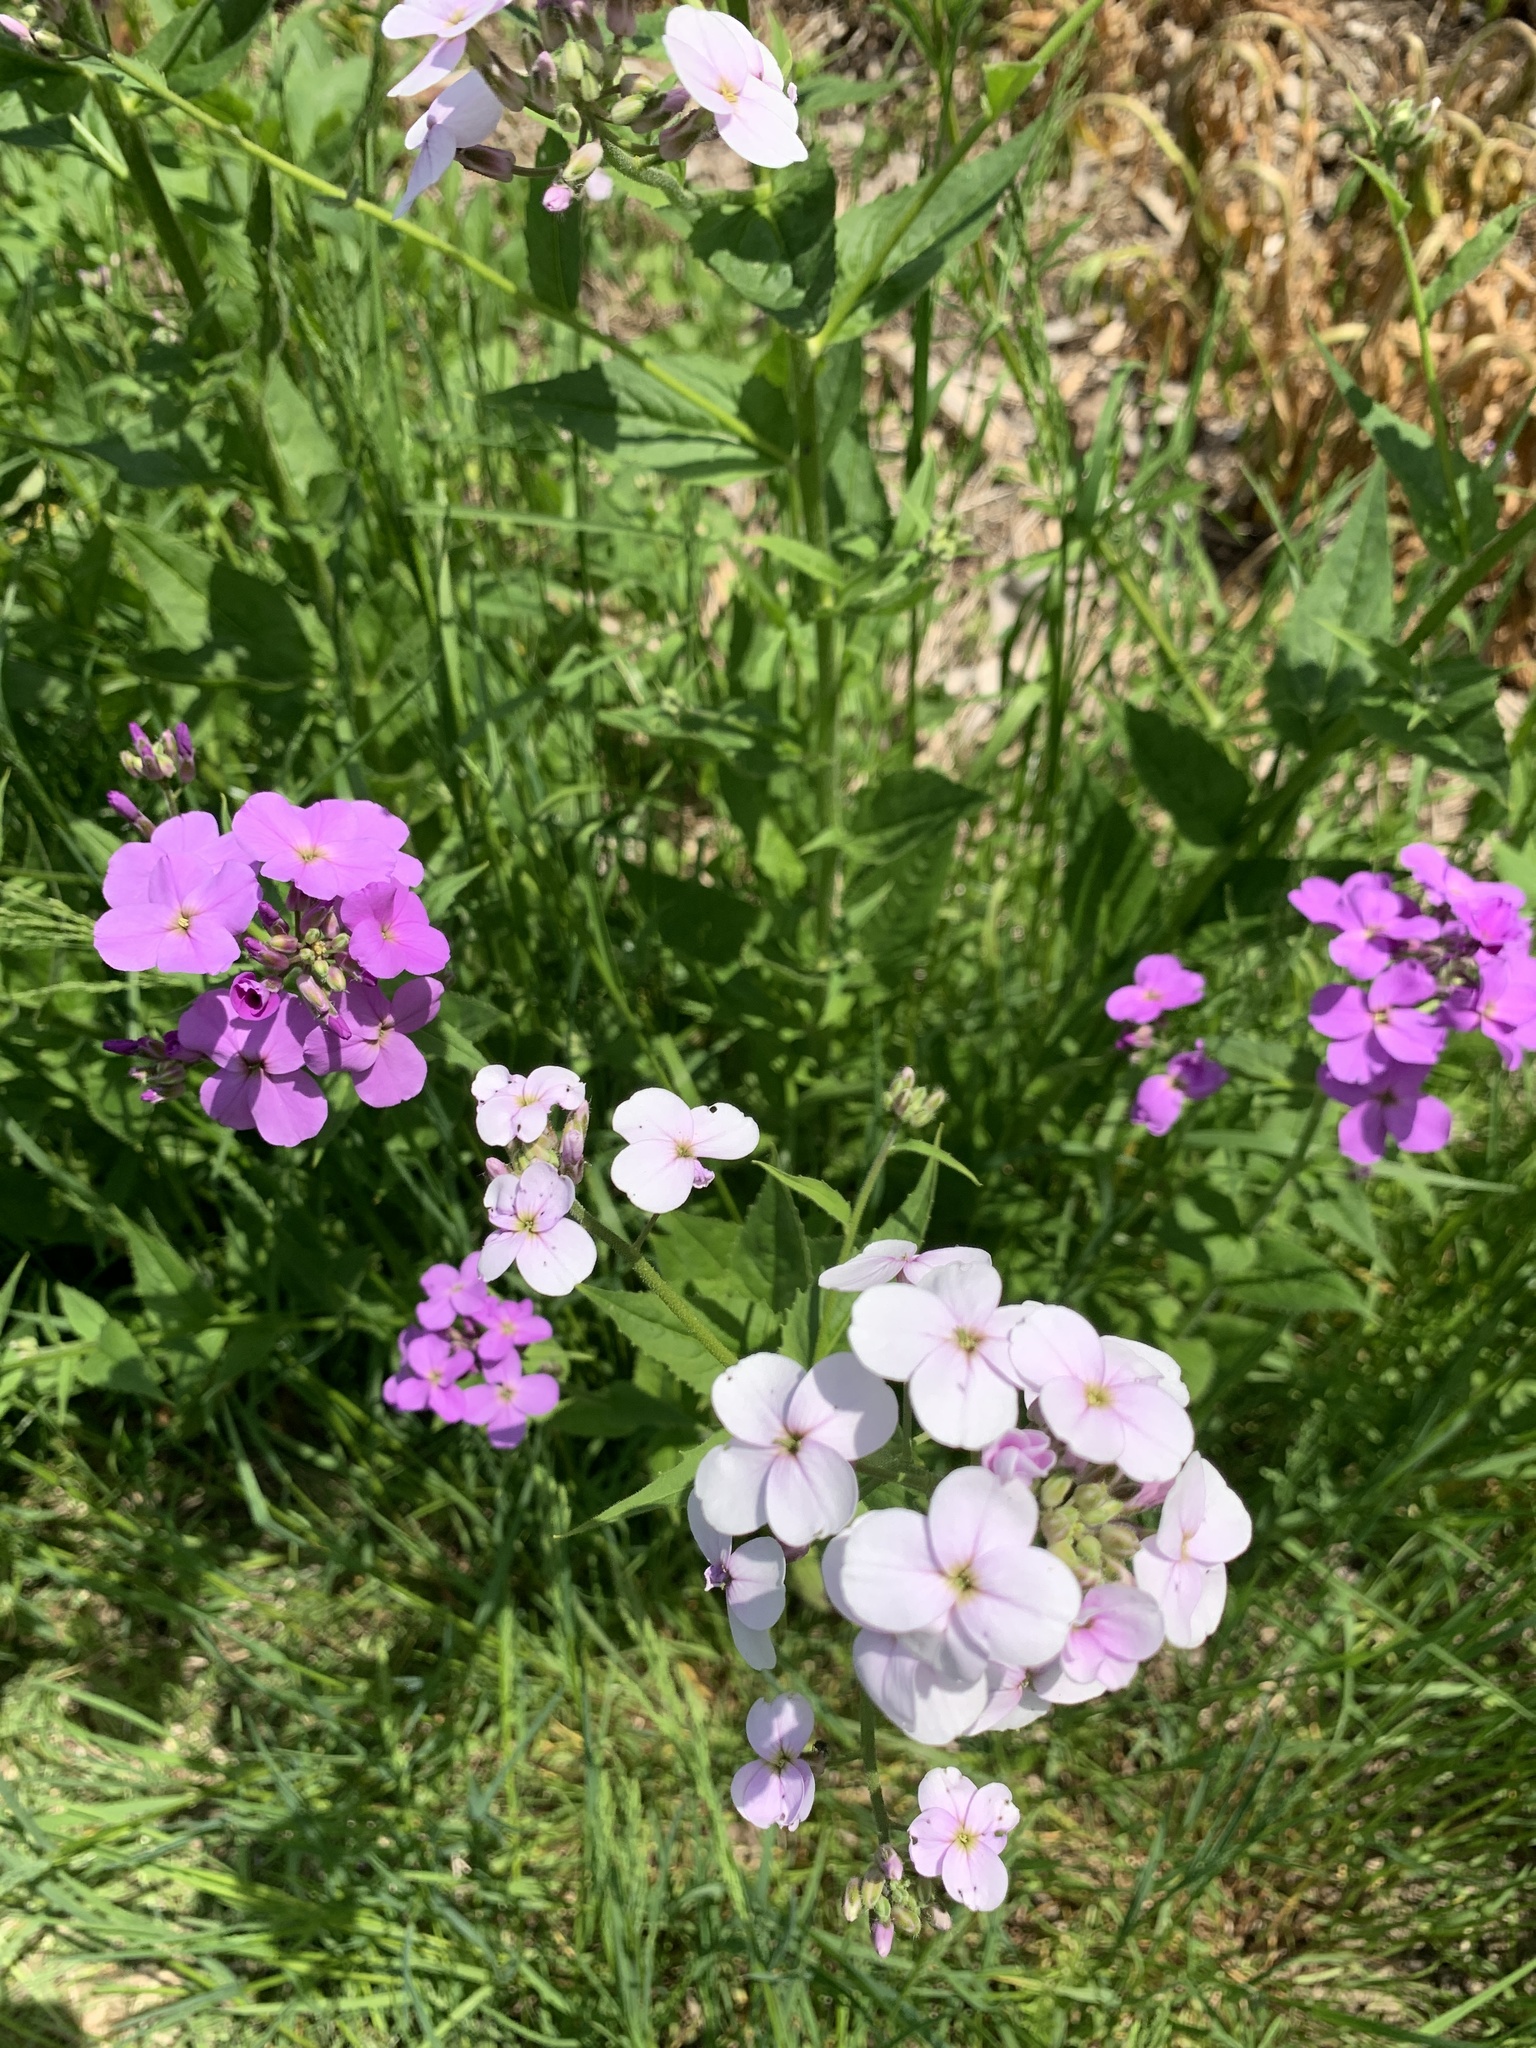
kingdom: Plantae
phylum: Tracheophyta
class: Magnoliopsida
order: Brassicales
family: Brassicaceae
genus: Hesperis
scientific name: Hesperis matronalis
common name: Dame's-violet
